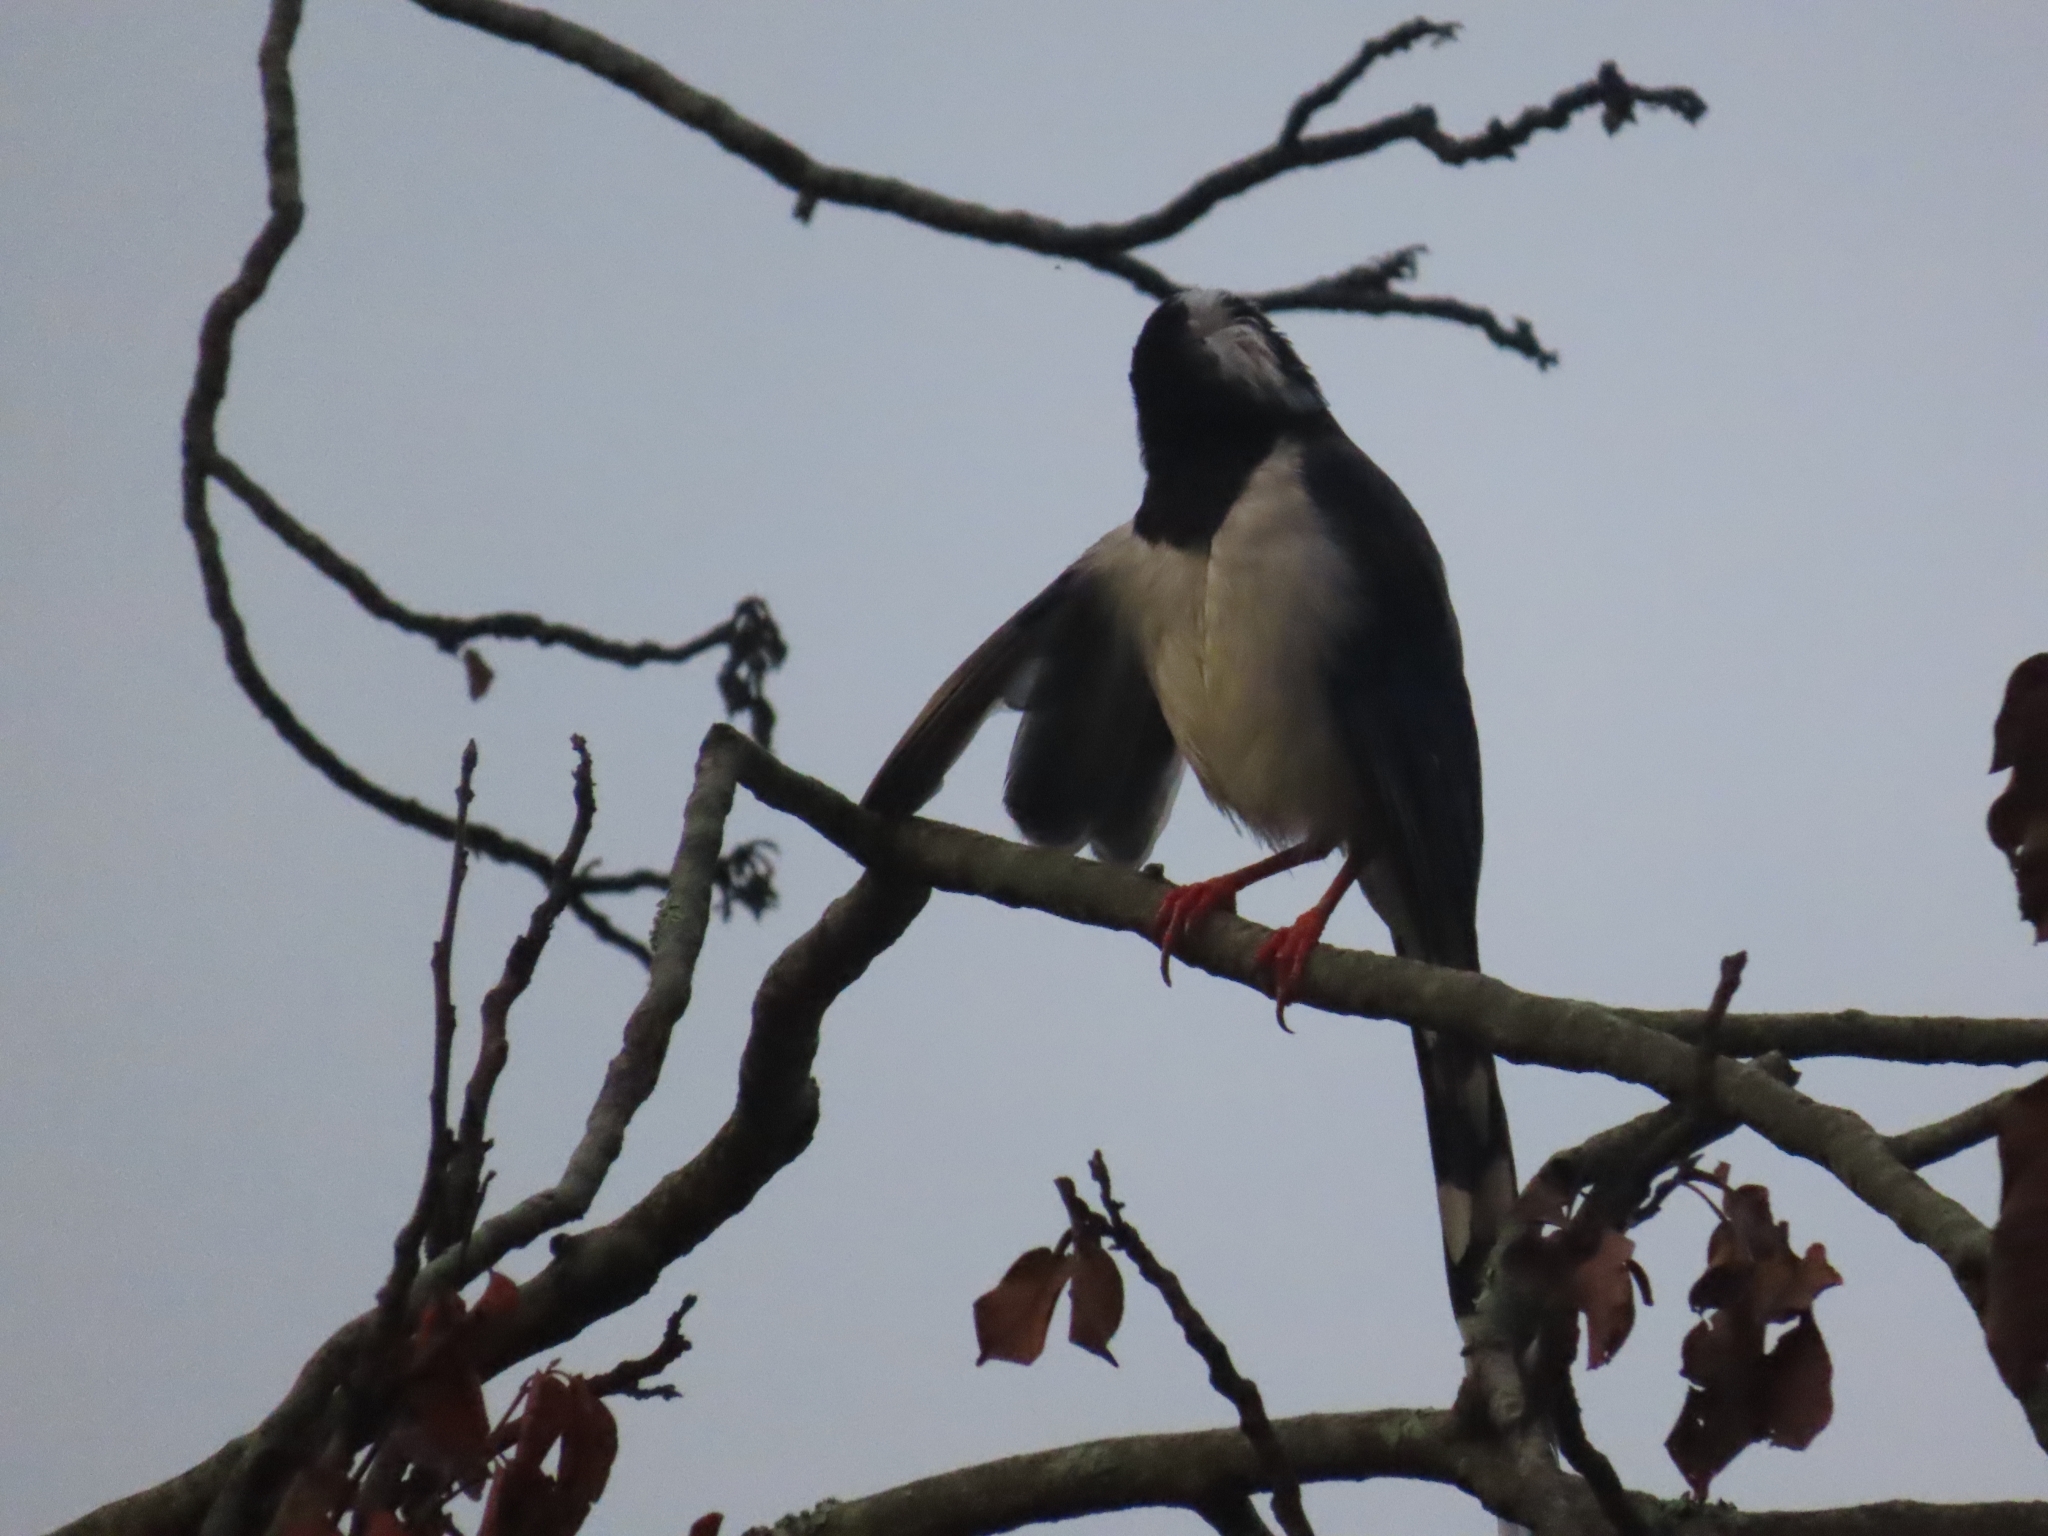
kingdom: Animalia
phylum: Chordata
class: Aves
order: Passeriformes
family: Corvidae
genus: Urocissa
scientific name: Urocissa erythroryncha
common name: Red-billed blue magpie
